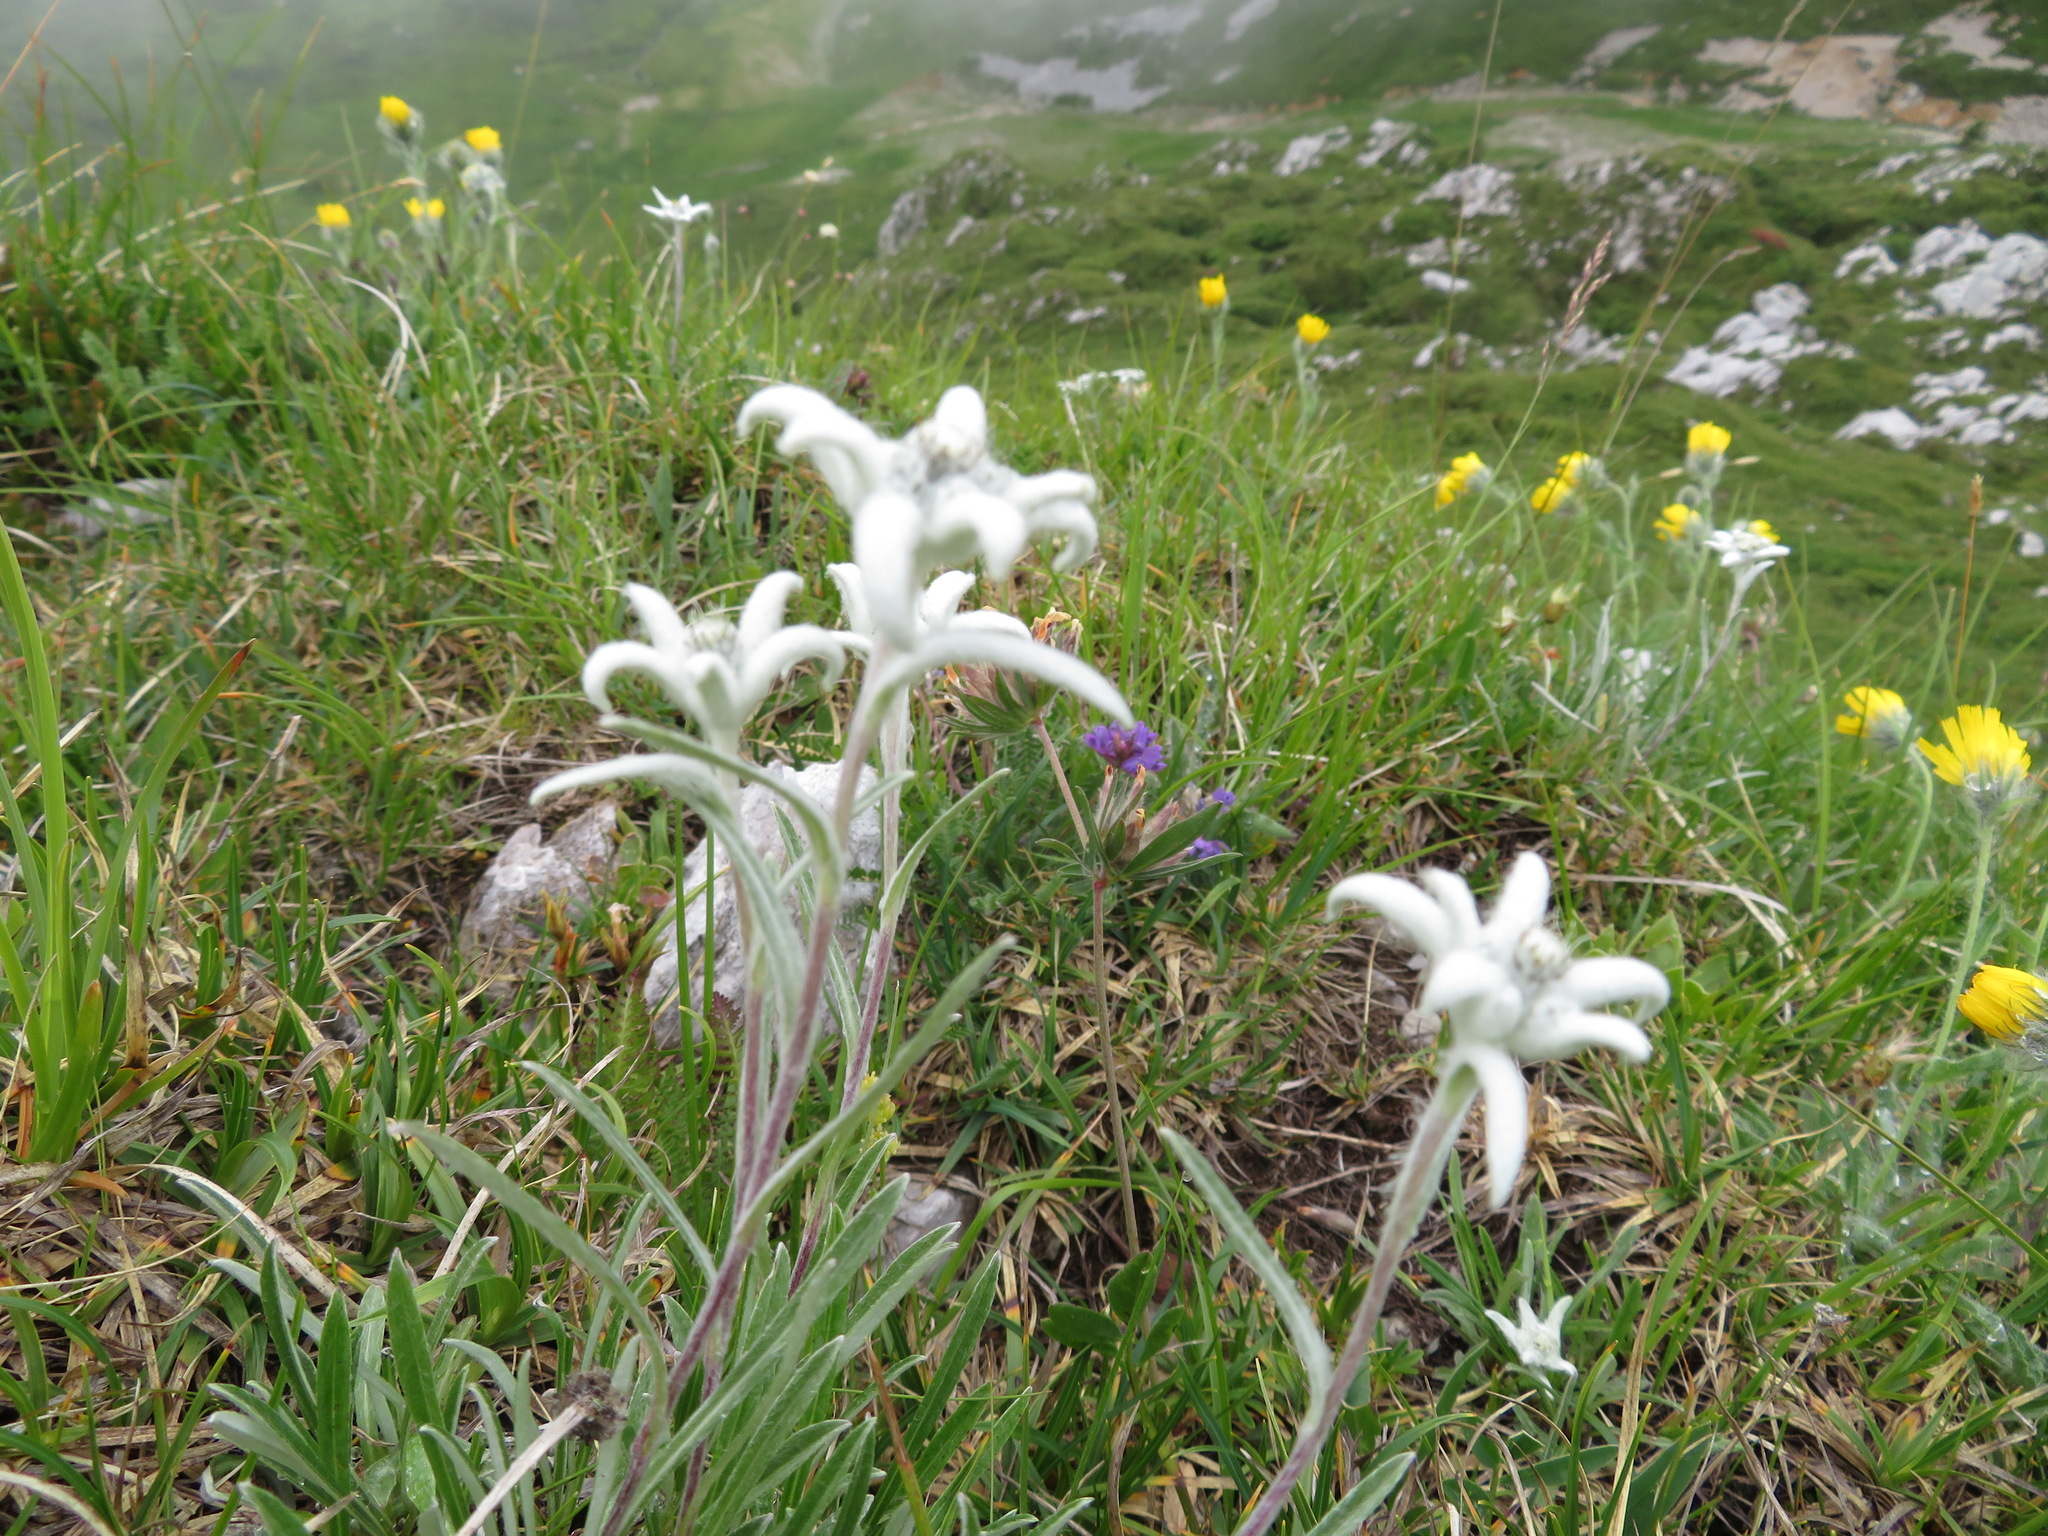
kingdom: Plantae
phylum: Tracheophyta
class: Magnoliopsida
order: Asterales
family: Asteraceae
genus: Leontopodium
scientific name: Leontopodium nivale
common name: Edelweiss
